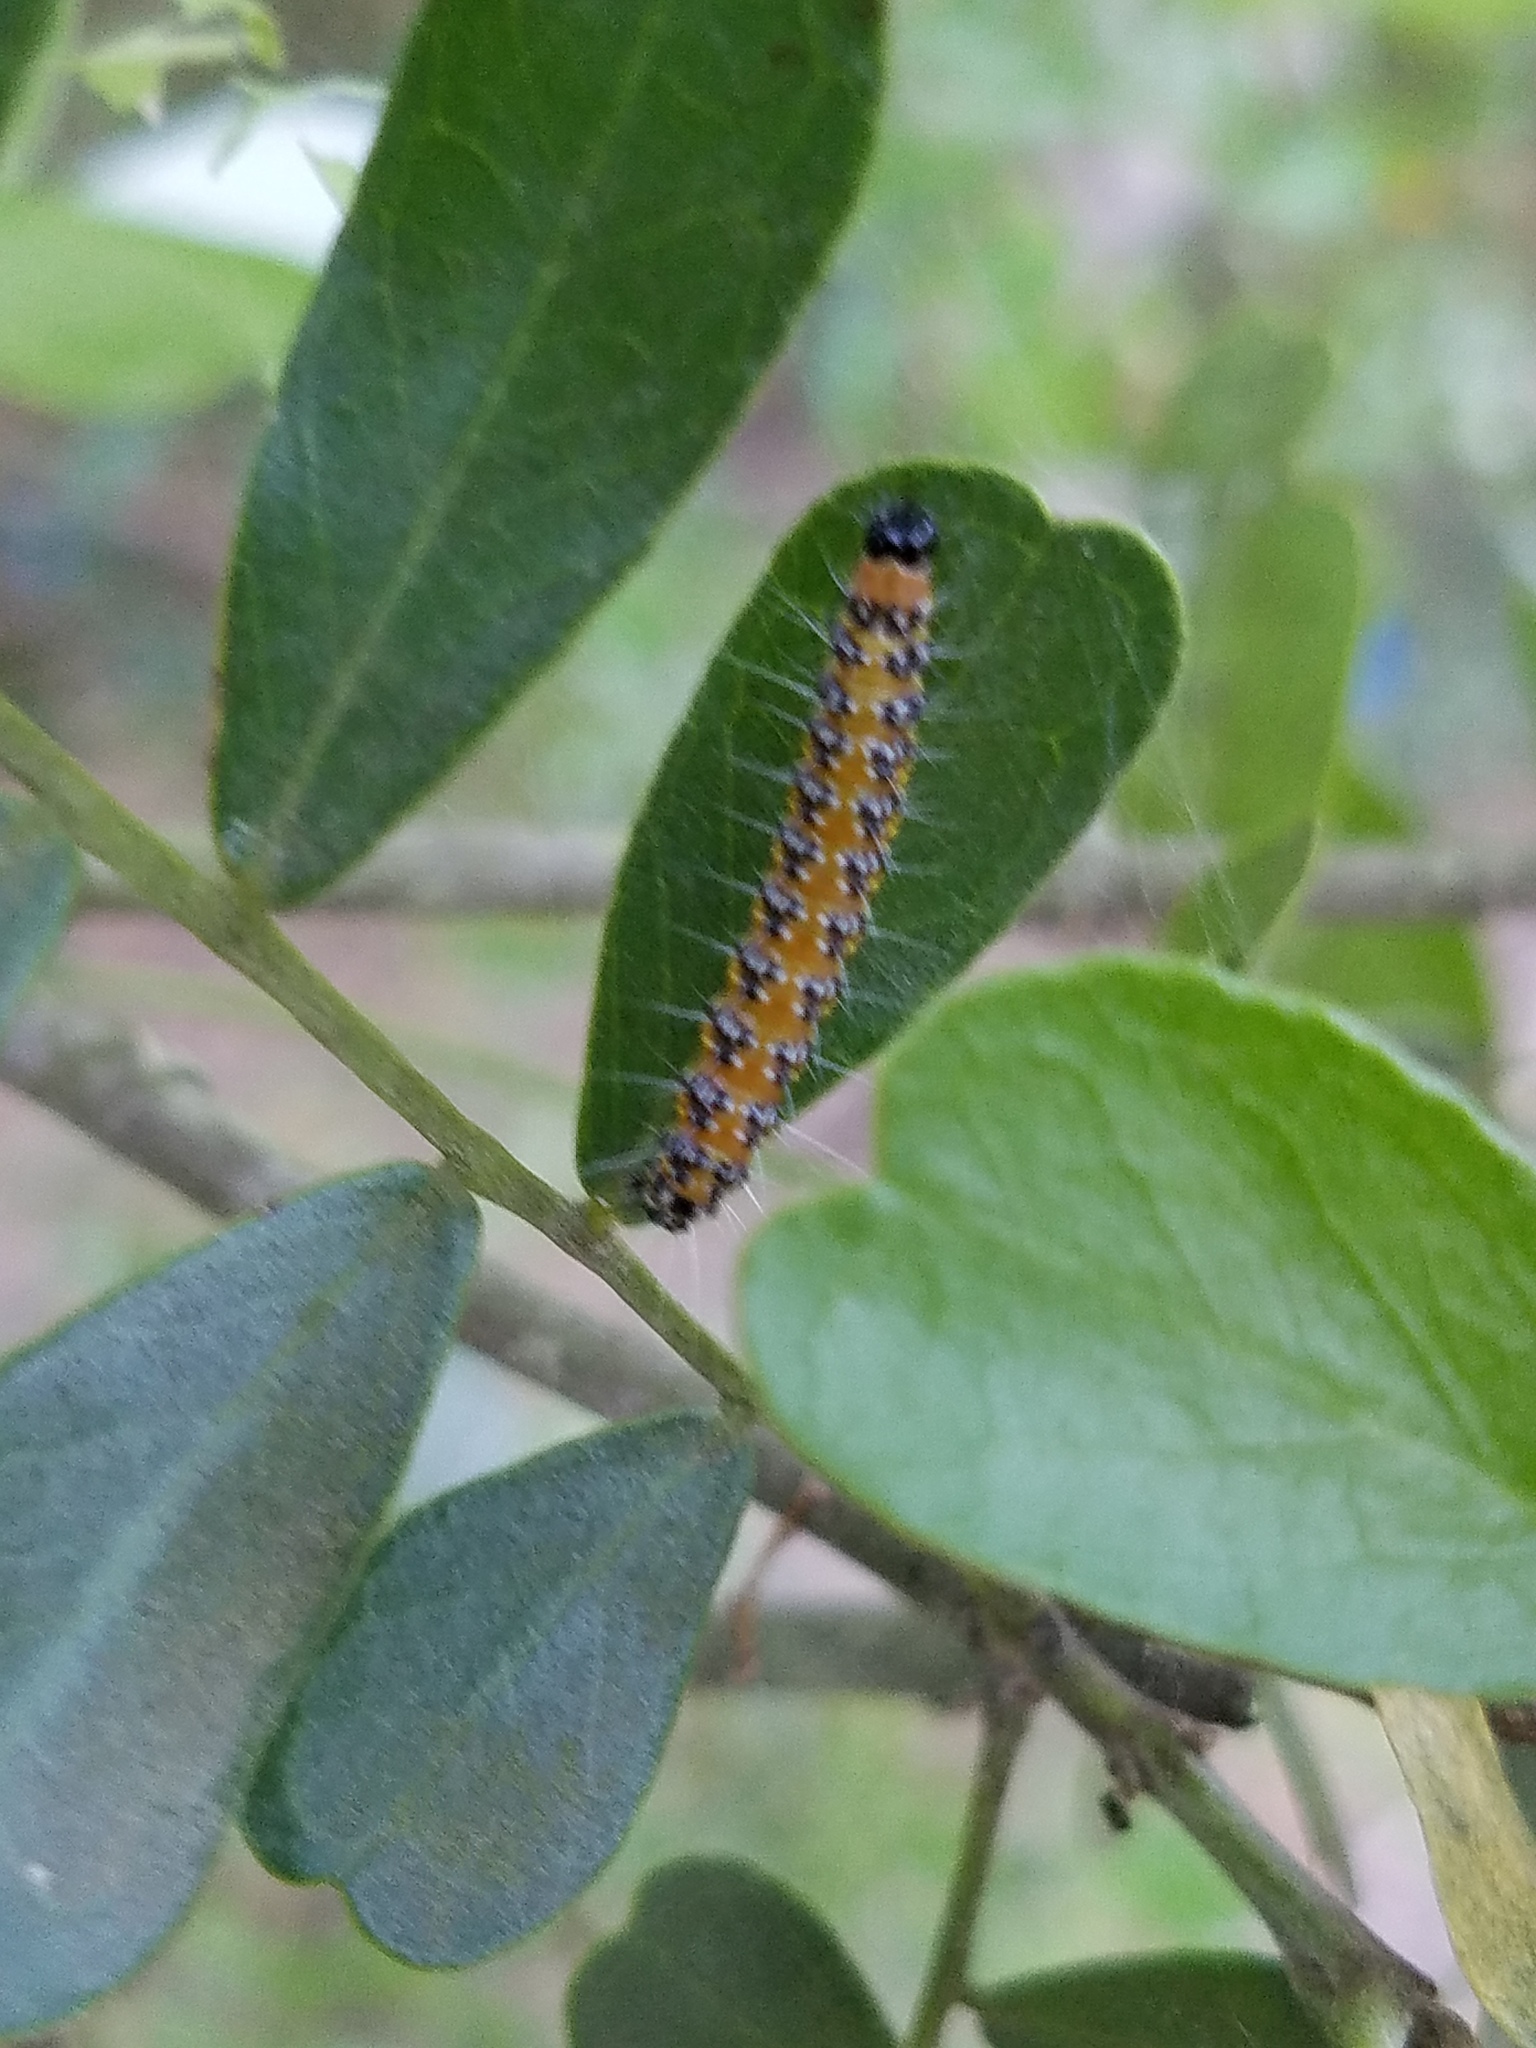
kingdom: Animalia
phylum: Arthropoda
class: Insecta
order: Lepidoptera
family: Crambidae
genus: Uresiphita
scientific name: Uresiphita reversalis
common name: Genista broom moth
